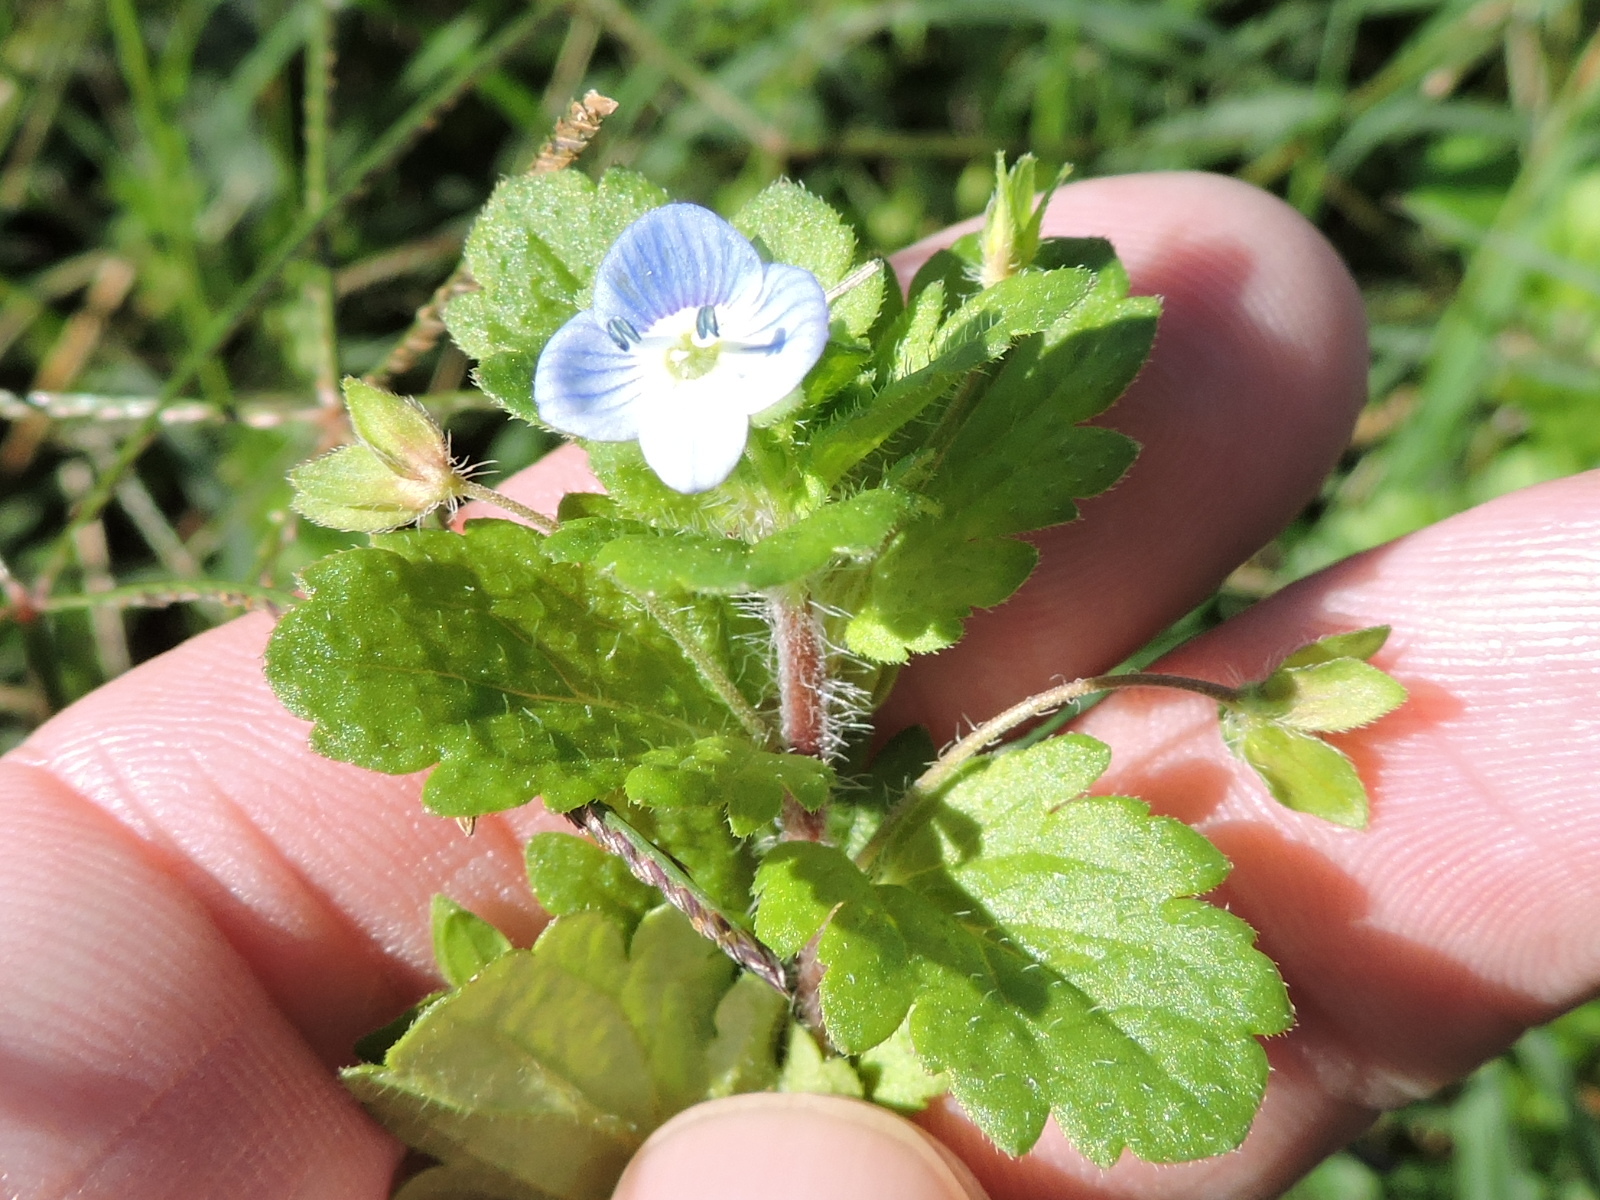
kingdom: Plantae
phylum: Tracheophyta
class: Magnoliopsida
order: Lamiales
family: Plantaginaceae
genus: Veronica
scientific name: Veronica persica
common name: Common field-speedwell
